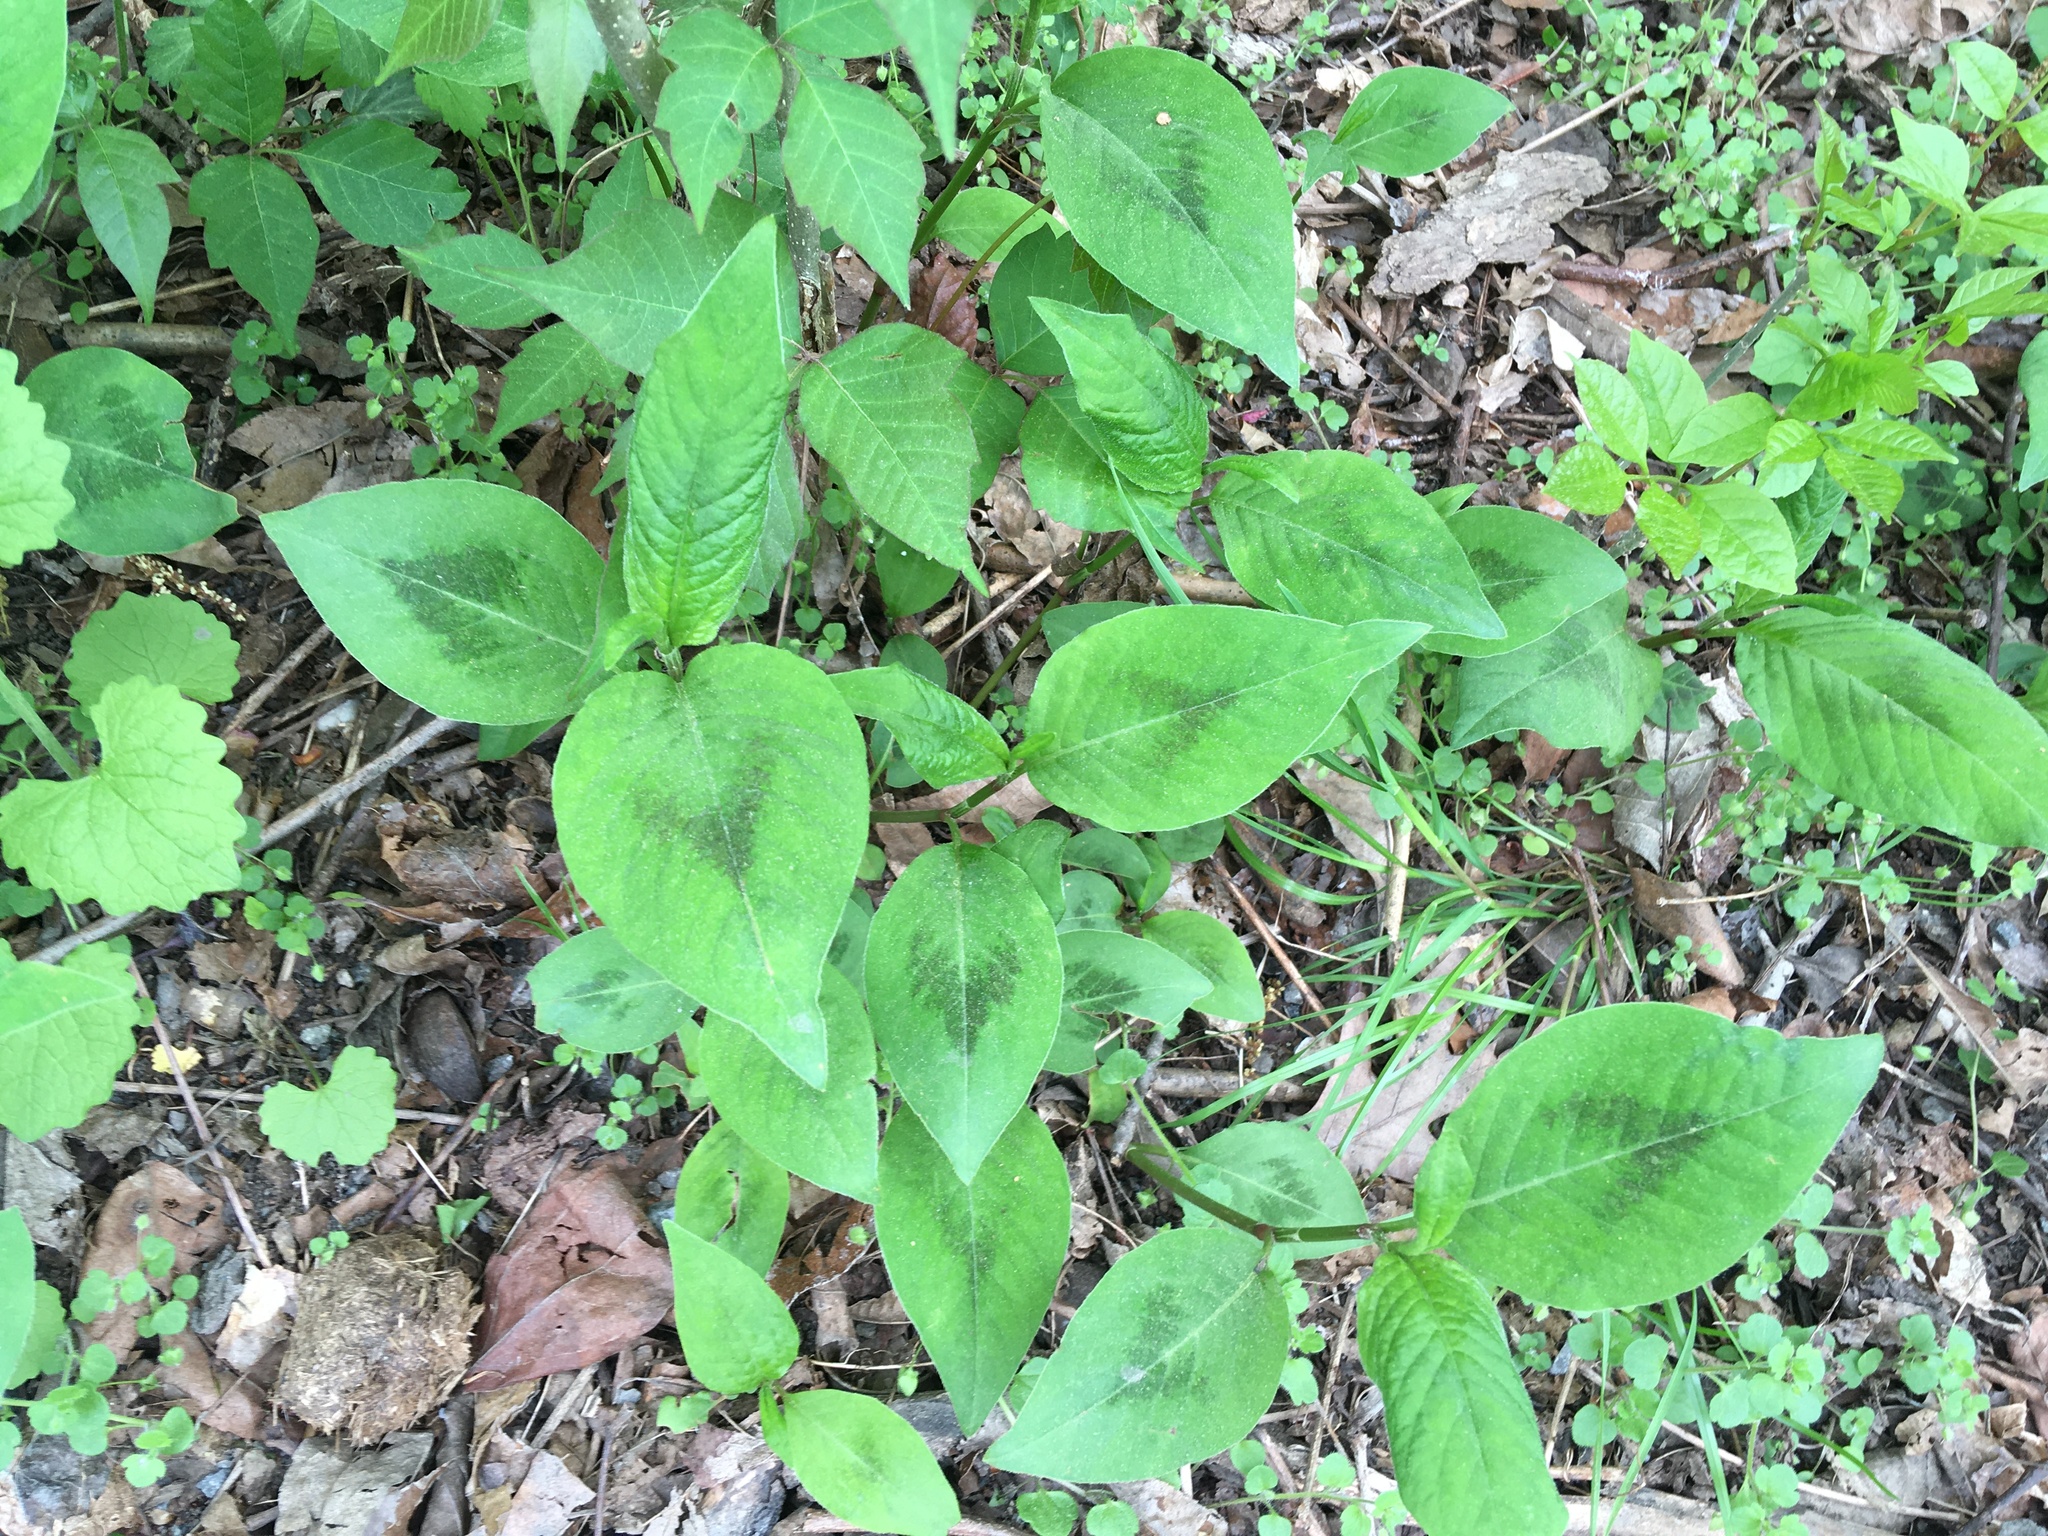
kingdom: Plantae
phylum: Tracheophyta
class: Magnoliopsida
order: Caryophyllales
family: Polygonaceae
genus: Persicaria
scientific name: Persicaria virginiana
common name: Jumpseed
